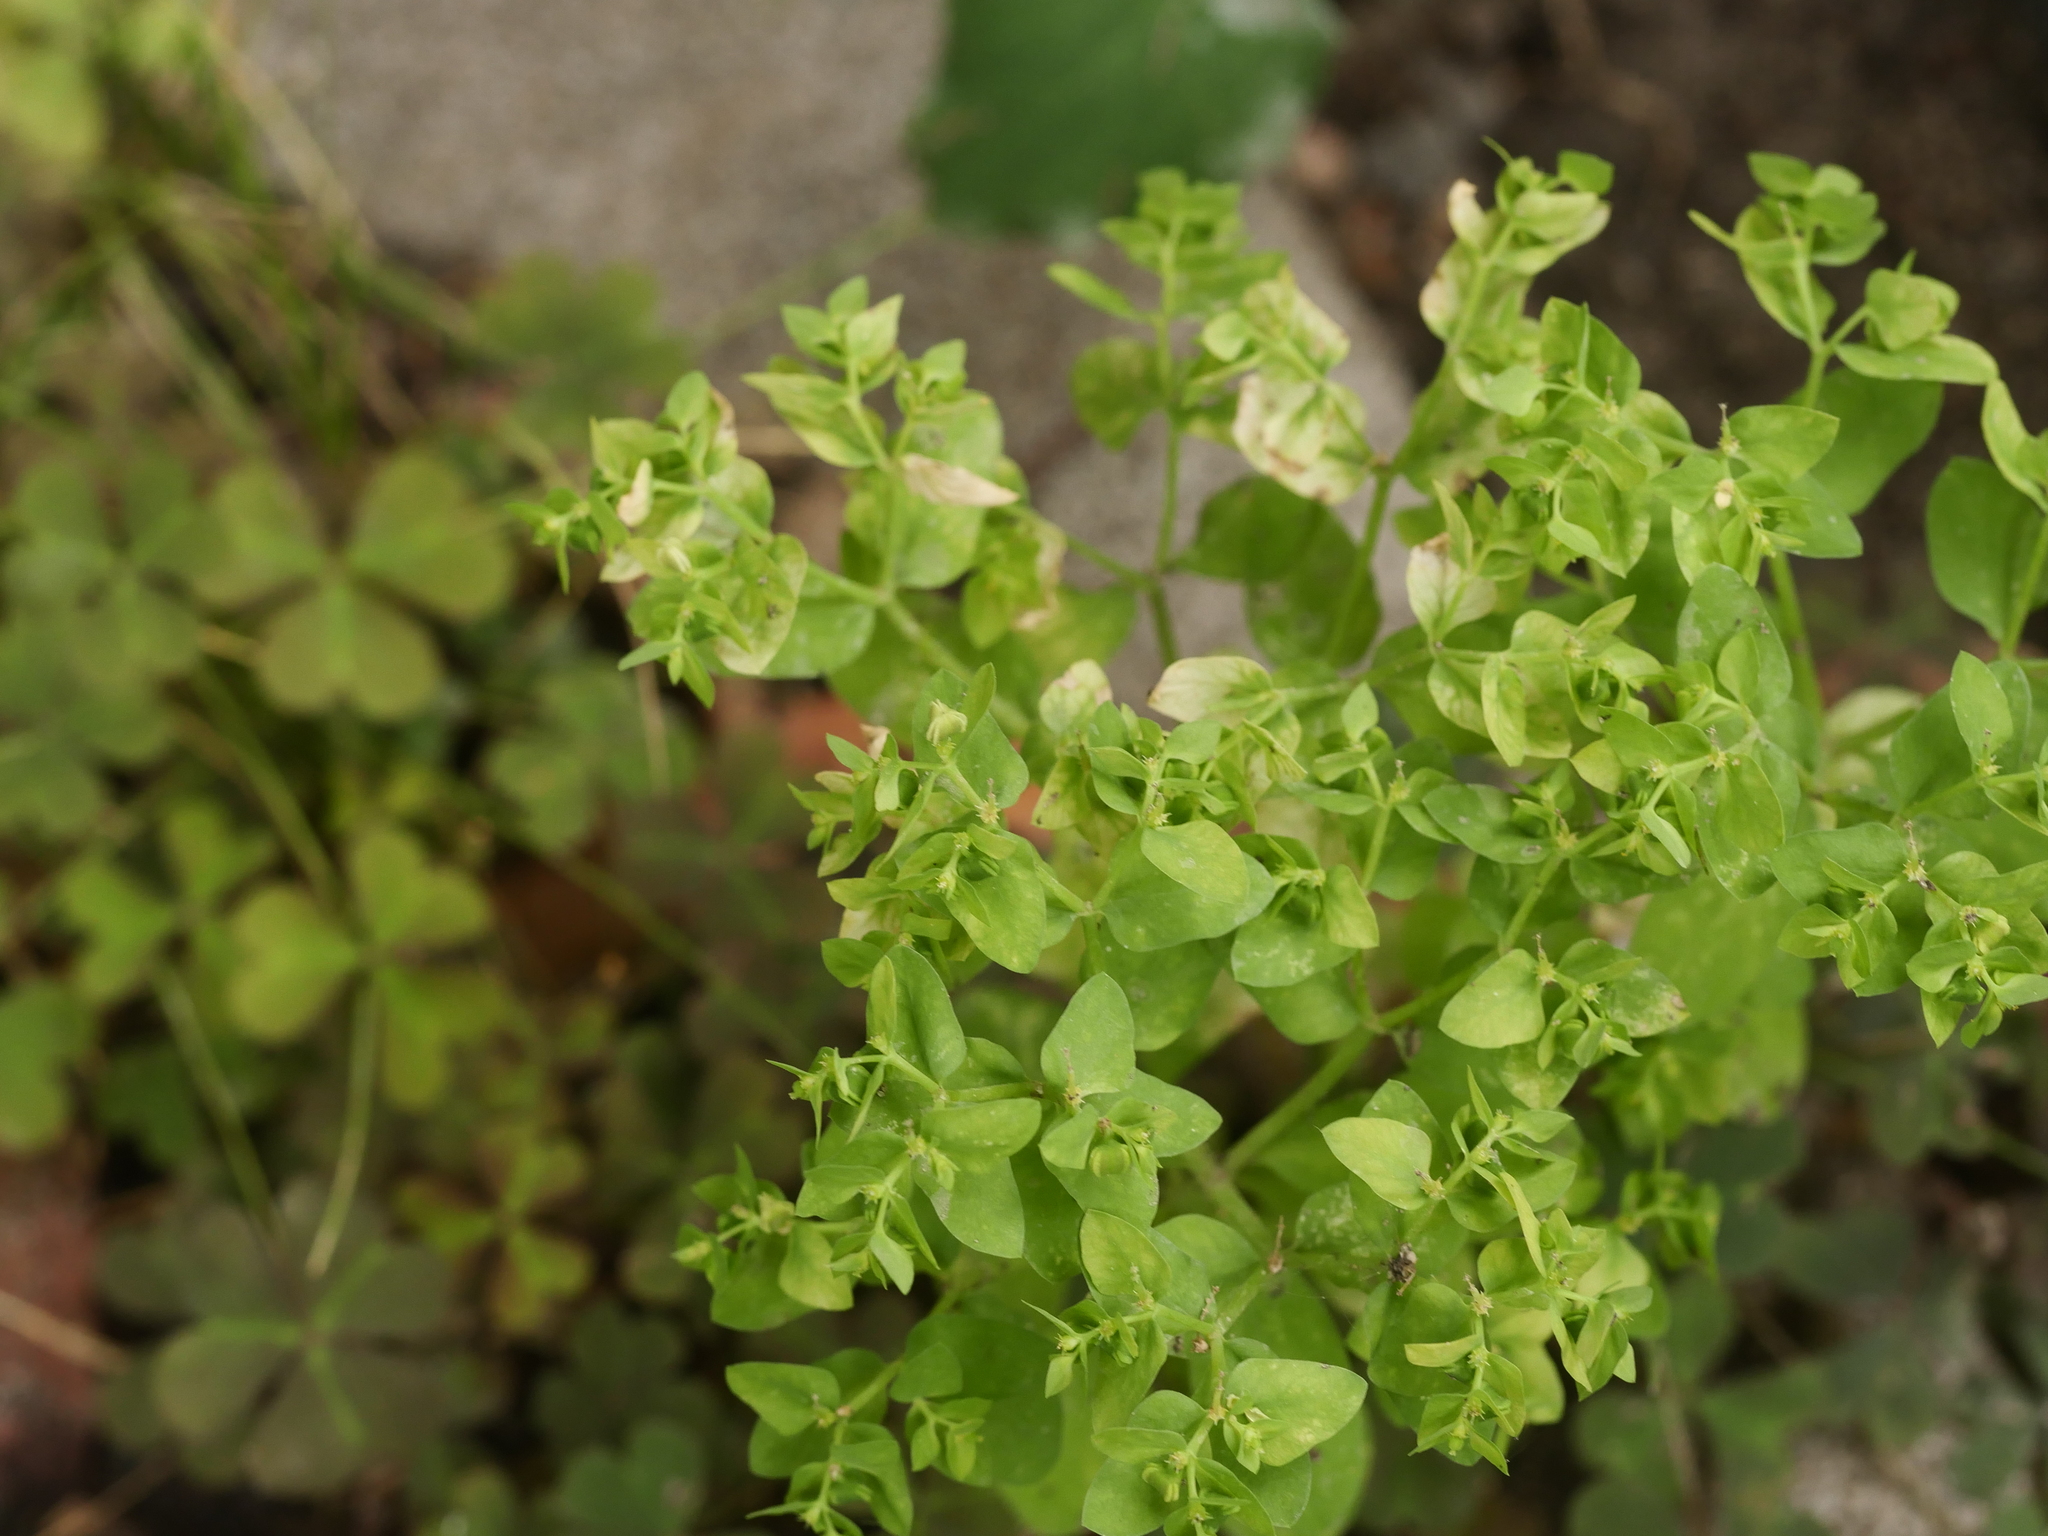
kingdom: Plantae
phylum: Tracheophyta
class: Magnoliopsida
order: Malpighiales
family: Euphorbiaceae
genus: Euphorbia
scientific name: Euphorbia peplus
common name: Petty spurge
